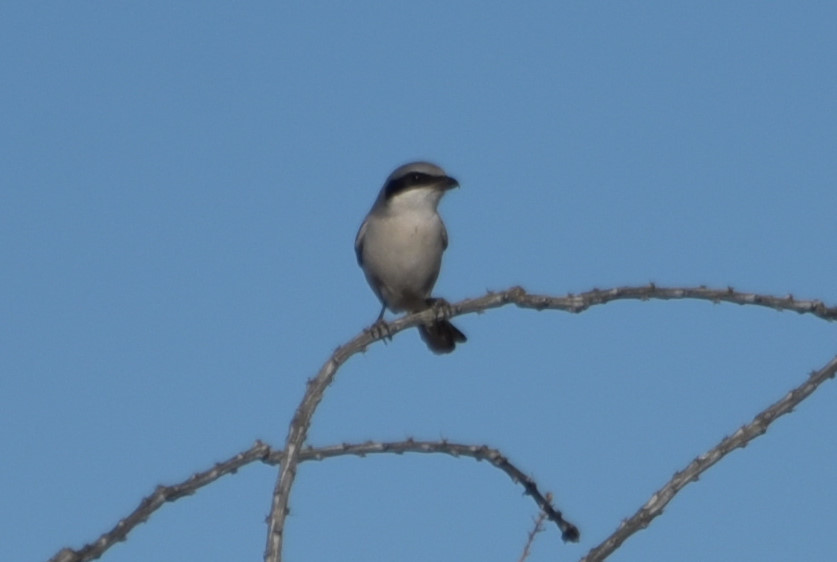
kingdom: Animalia
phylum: Chordata
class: Aves
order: Passeriformes
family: Laniidae
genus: Lanius
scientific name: Lanius ludovicianus
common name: Loggerhead shrike
